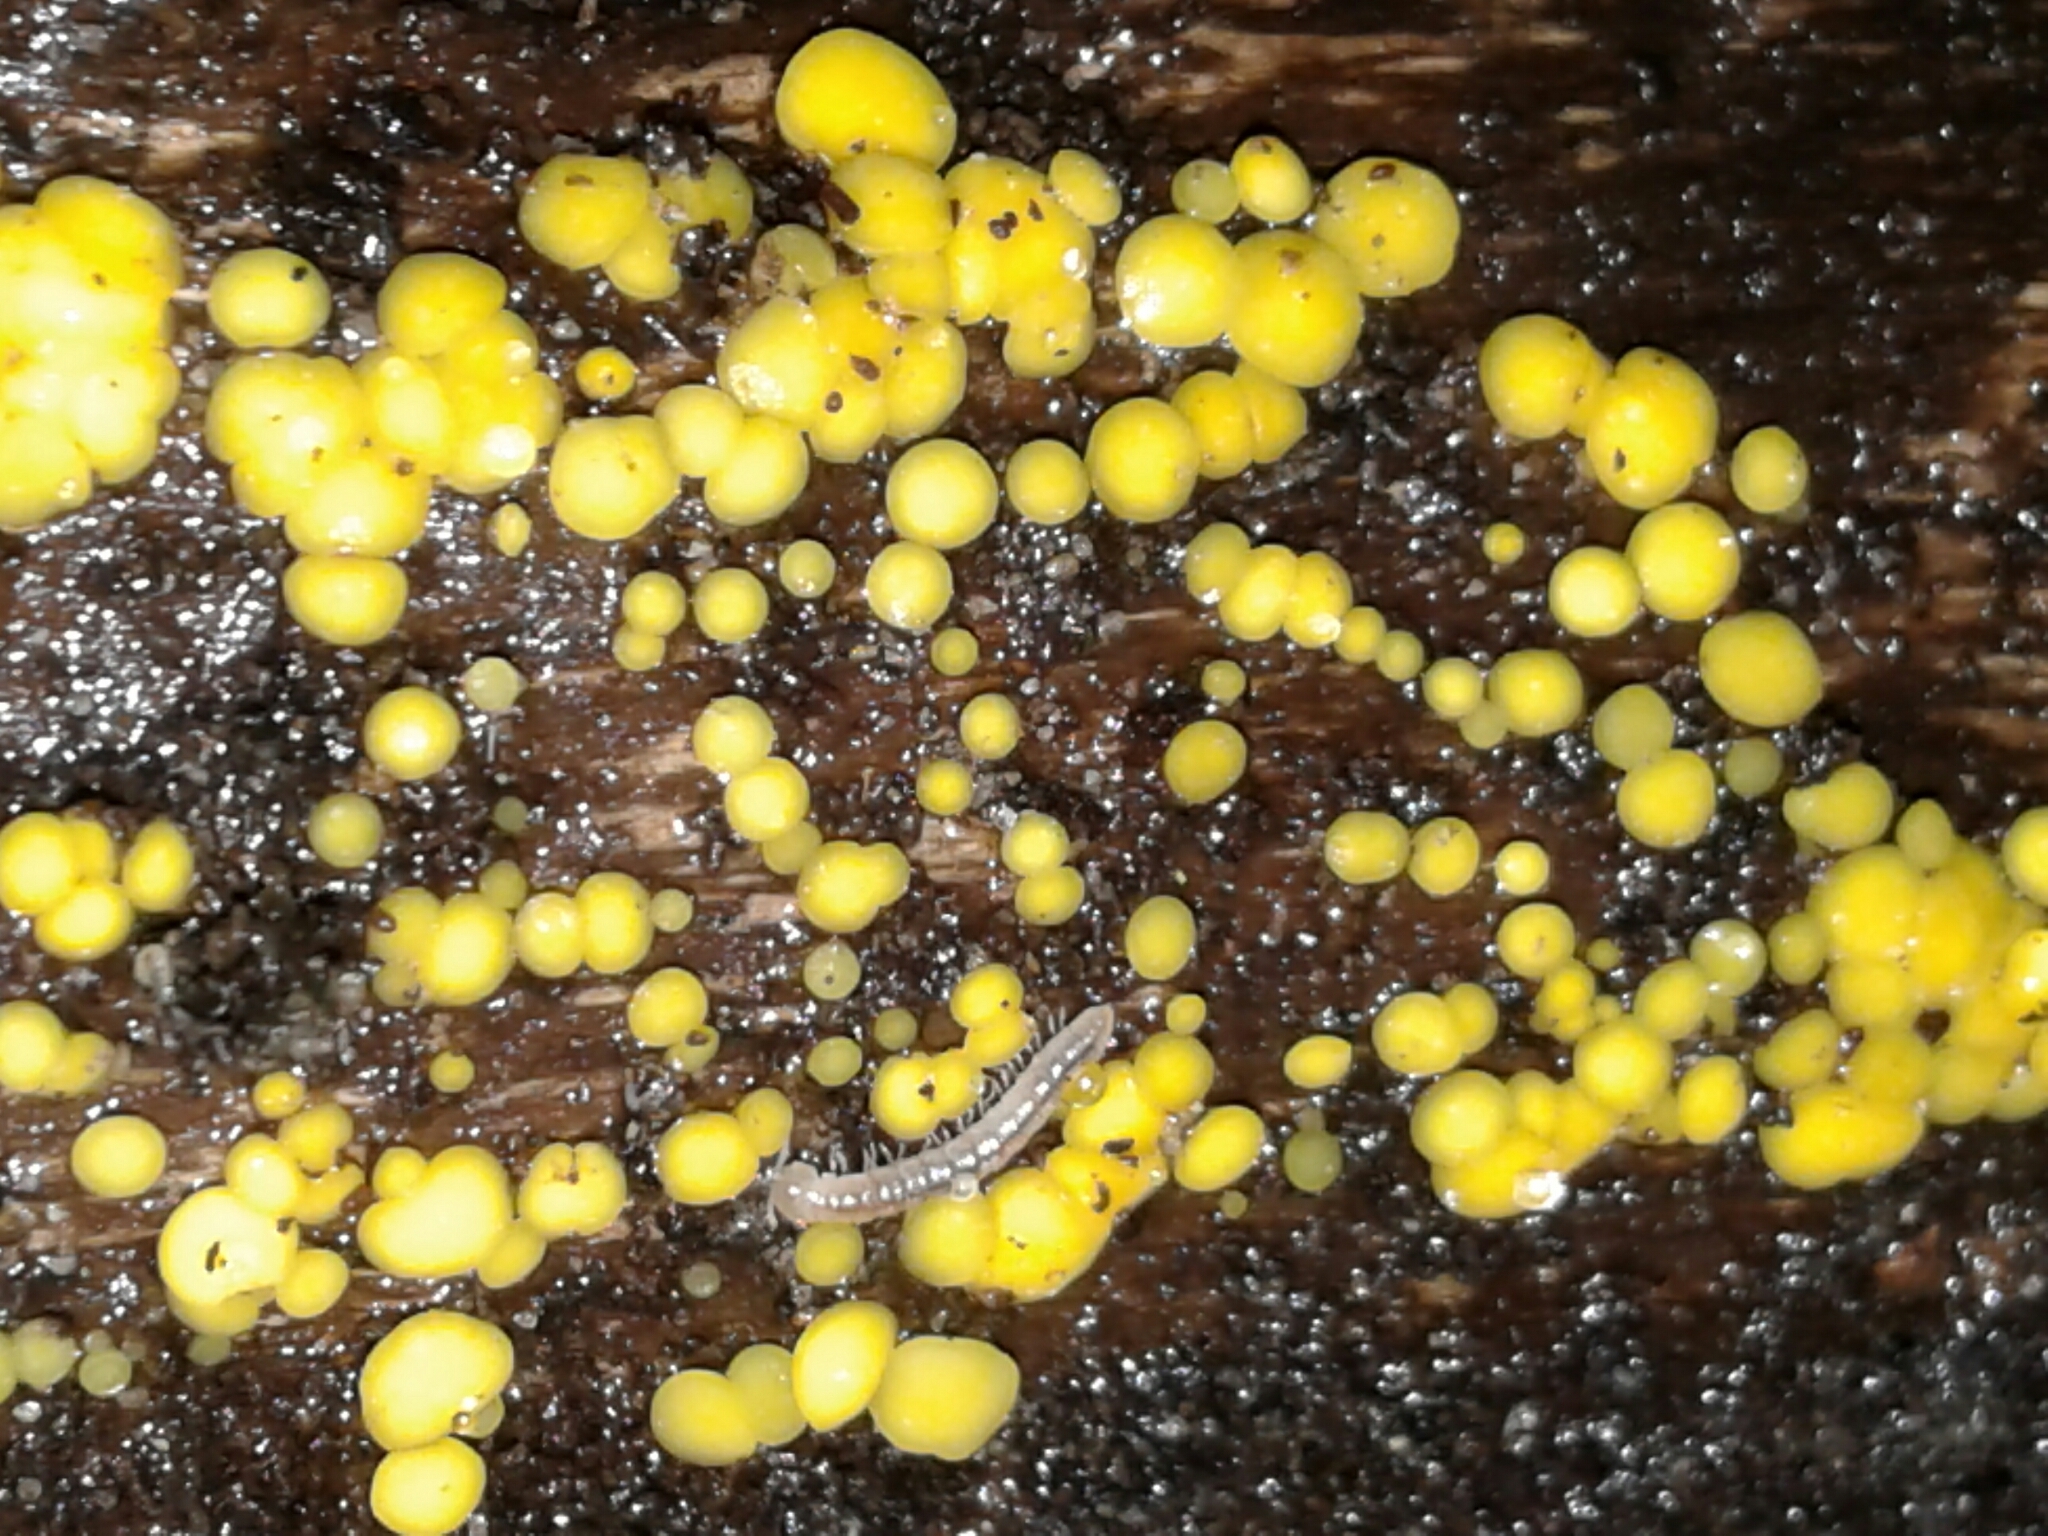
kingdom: Fungi
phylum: Ascomycota
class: Leotiomycetes
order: Helotiales
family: Pezizellaceae
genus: Calycina
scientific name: Calycina citrina
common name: Yellow fairy cups
